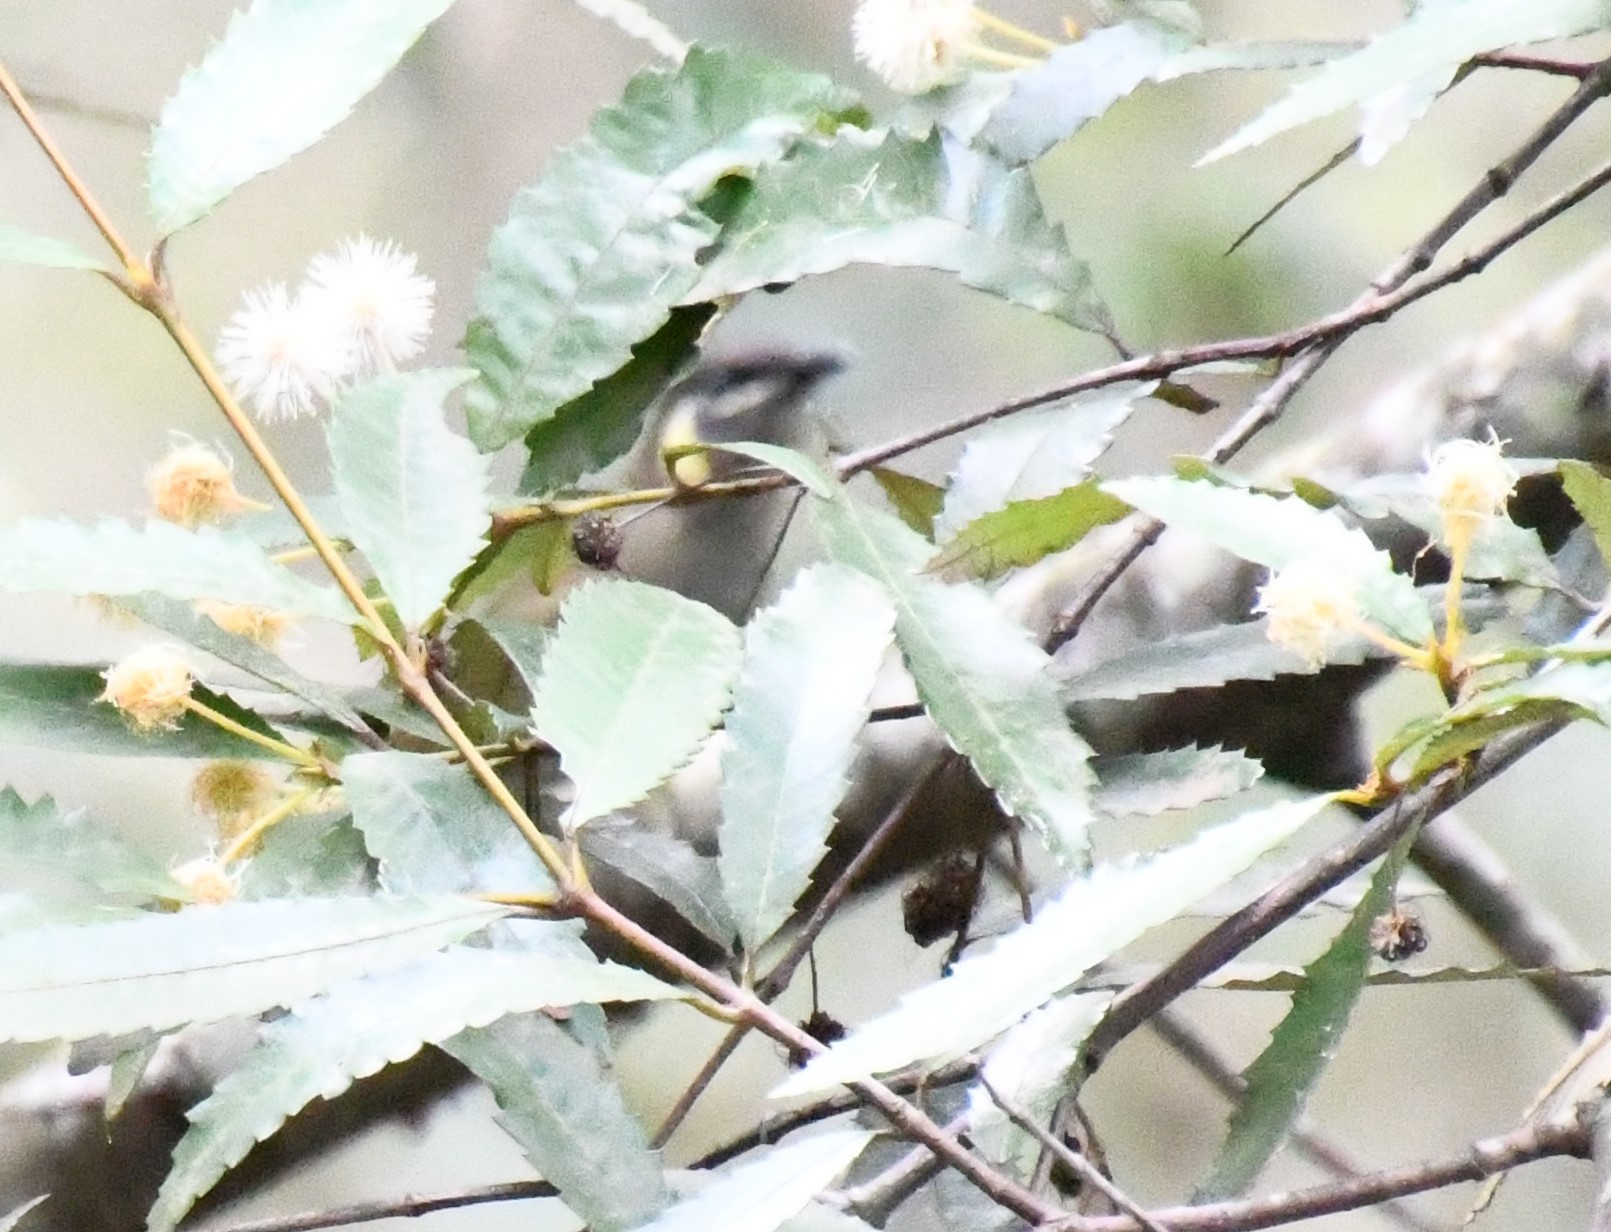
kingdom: Animalia
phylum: Chordata
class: Aves
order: Passeriformes
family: Meliphagidae
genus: Meliphaga
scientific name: Meliphaga lewinii
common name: Lewin's honeyeater
